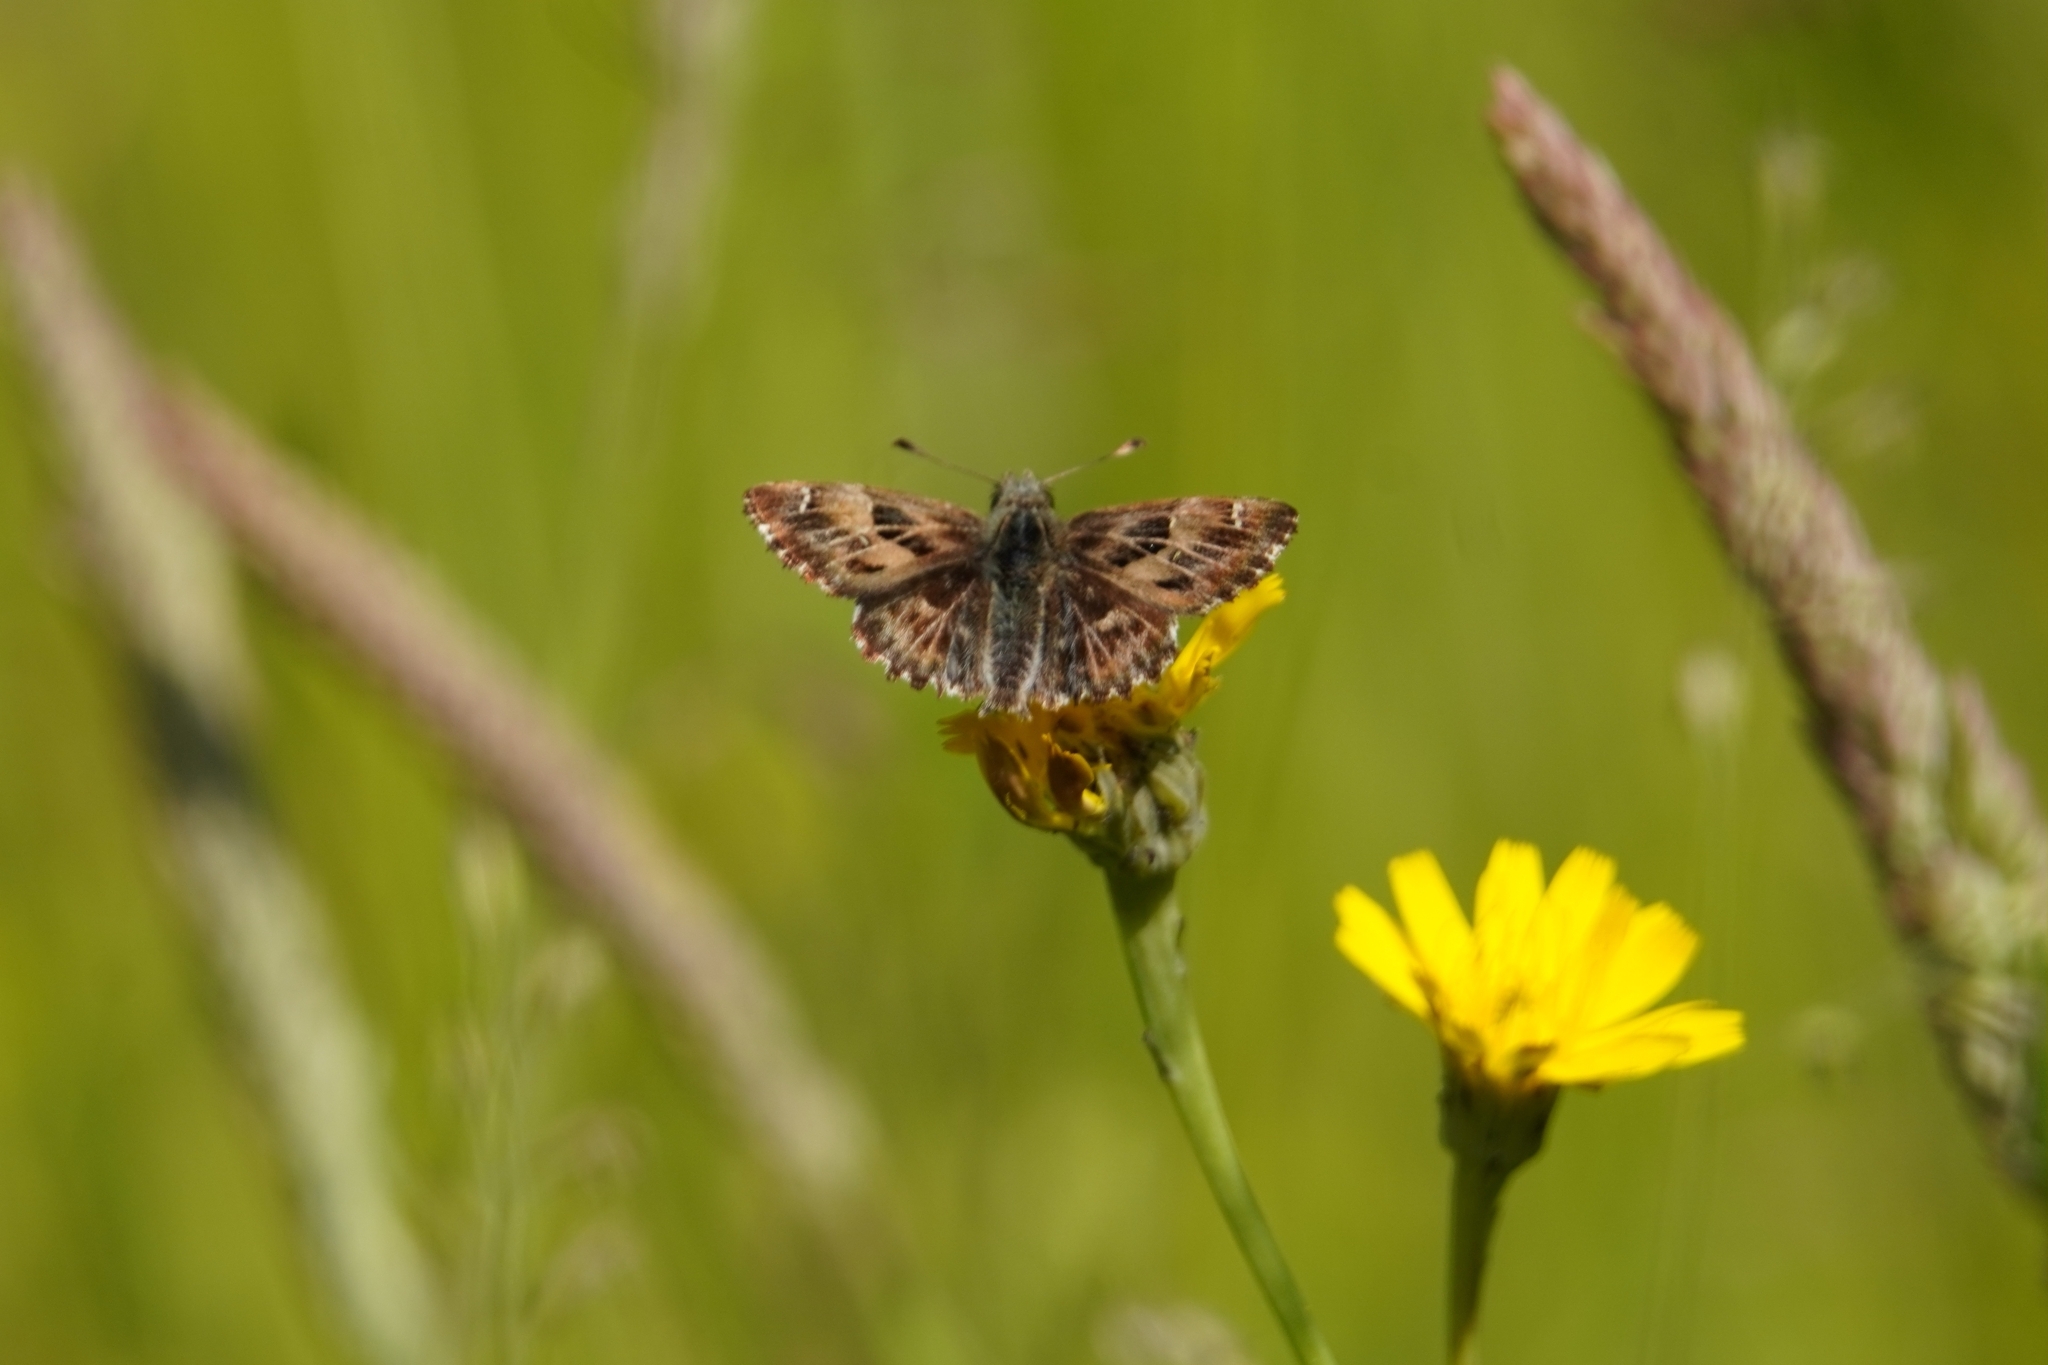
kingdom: Animalia
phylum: Arthropoda
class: Insecta
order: Lepidoptera
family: Hesperiidae
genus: Carcharodus
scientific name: Carcharodus alceae
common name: Mallow skipper
